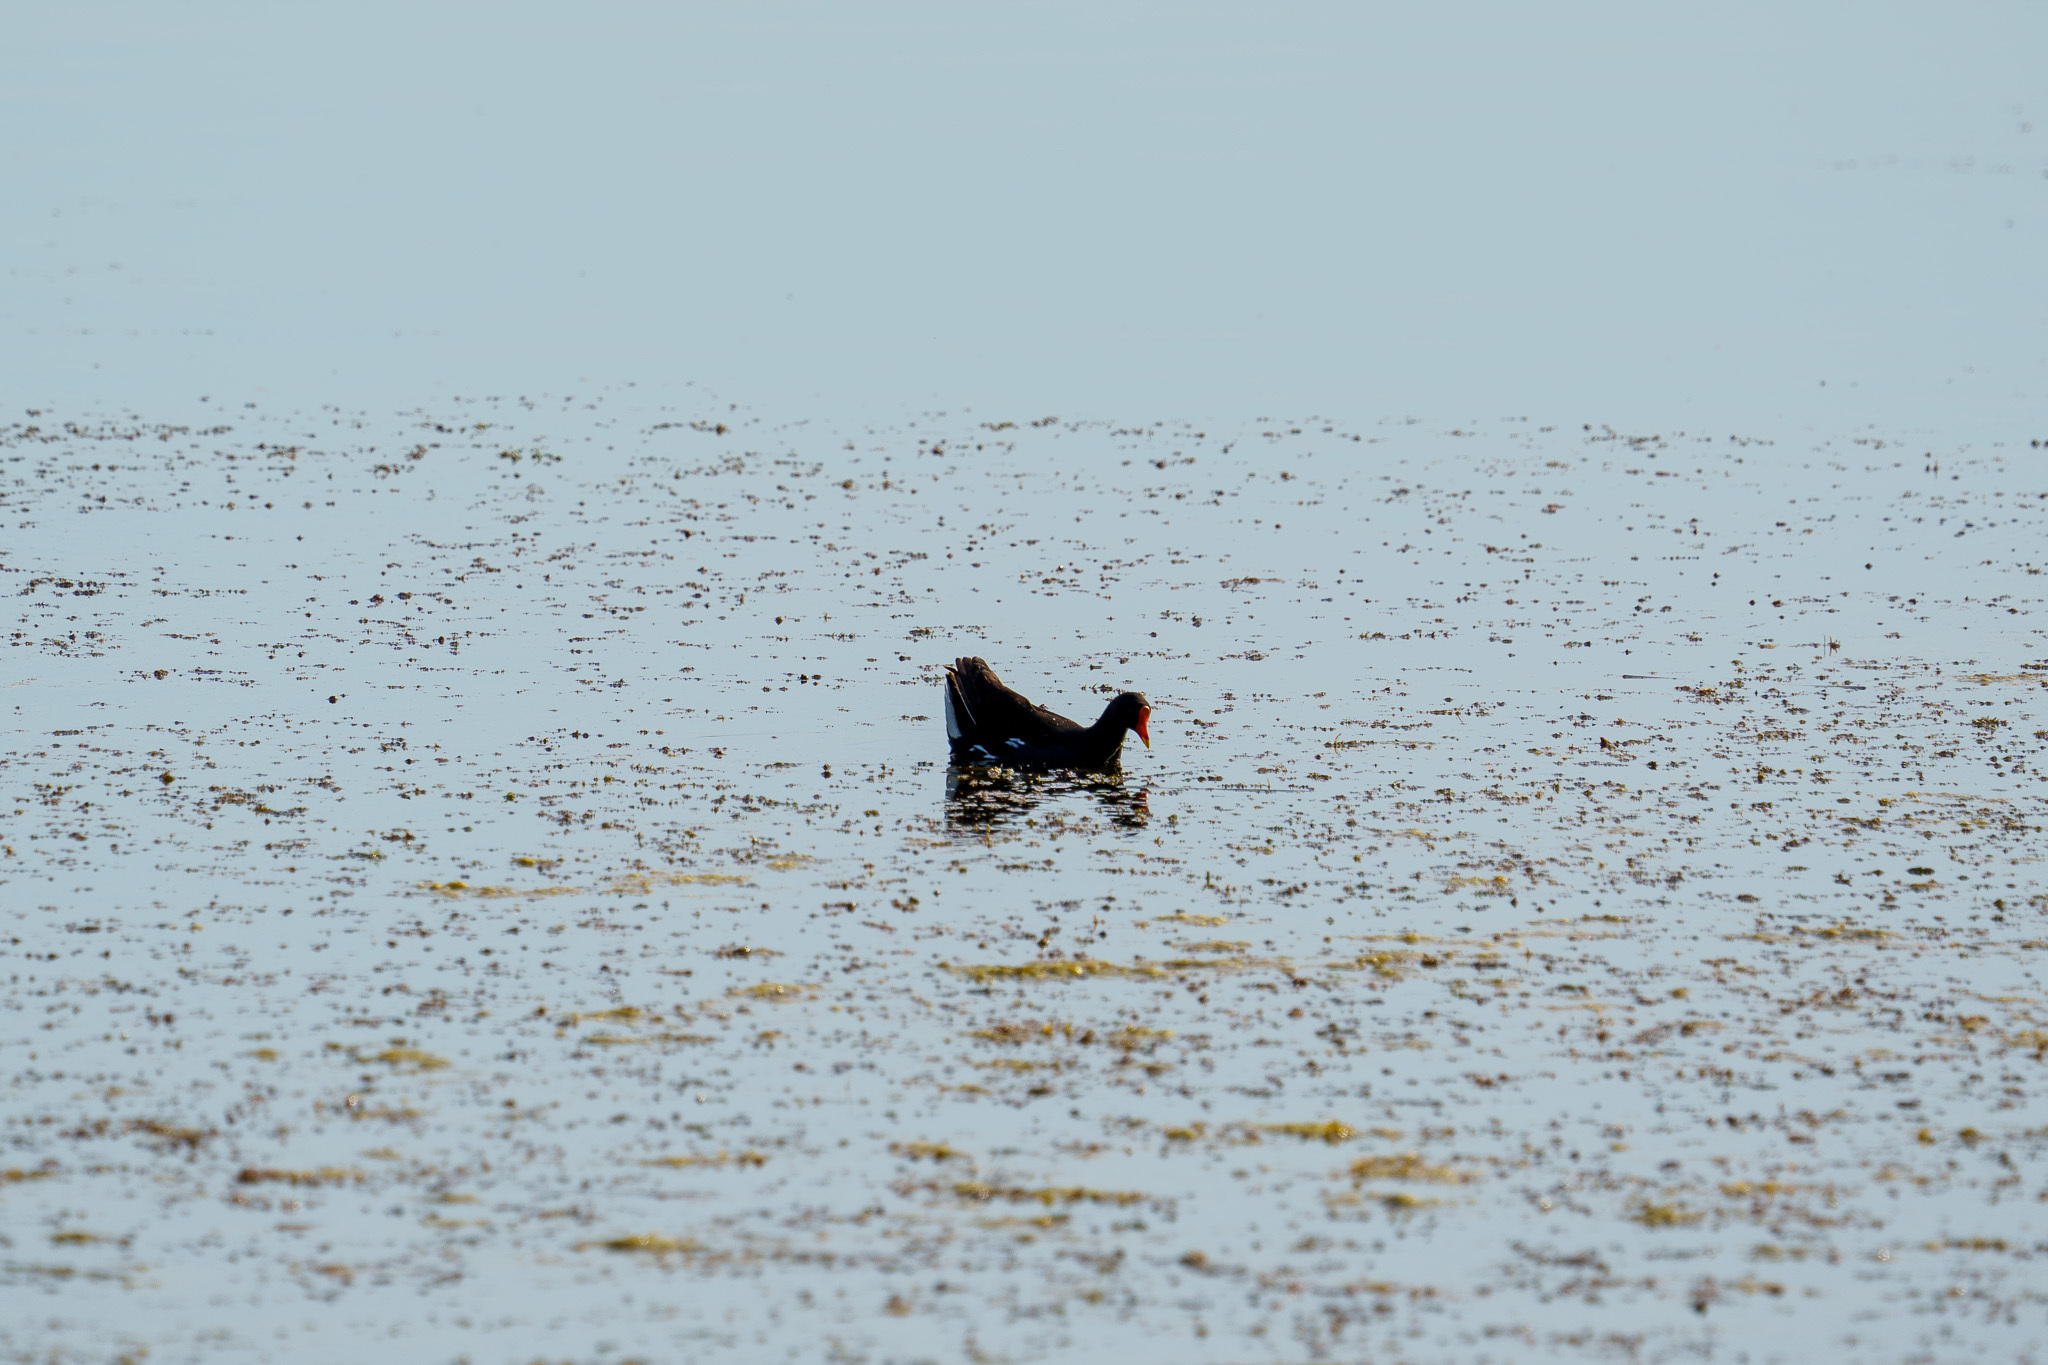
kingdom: Animalia
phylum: Chordata
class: Aves
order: Gruiformes
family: Rallidae
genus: Gallinula
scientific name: Gallinula chloropus
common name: Common moorhen
